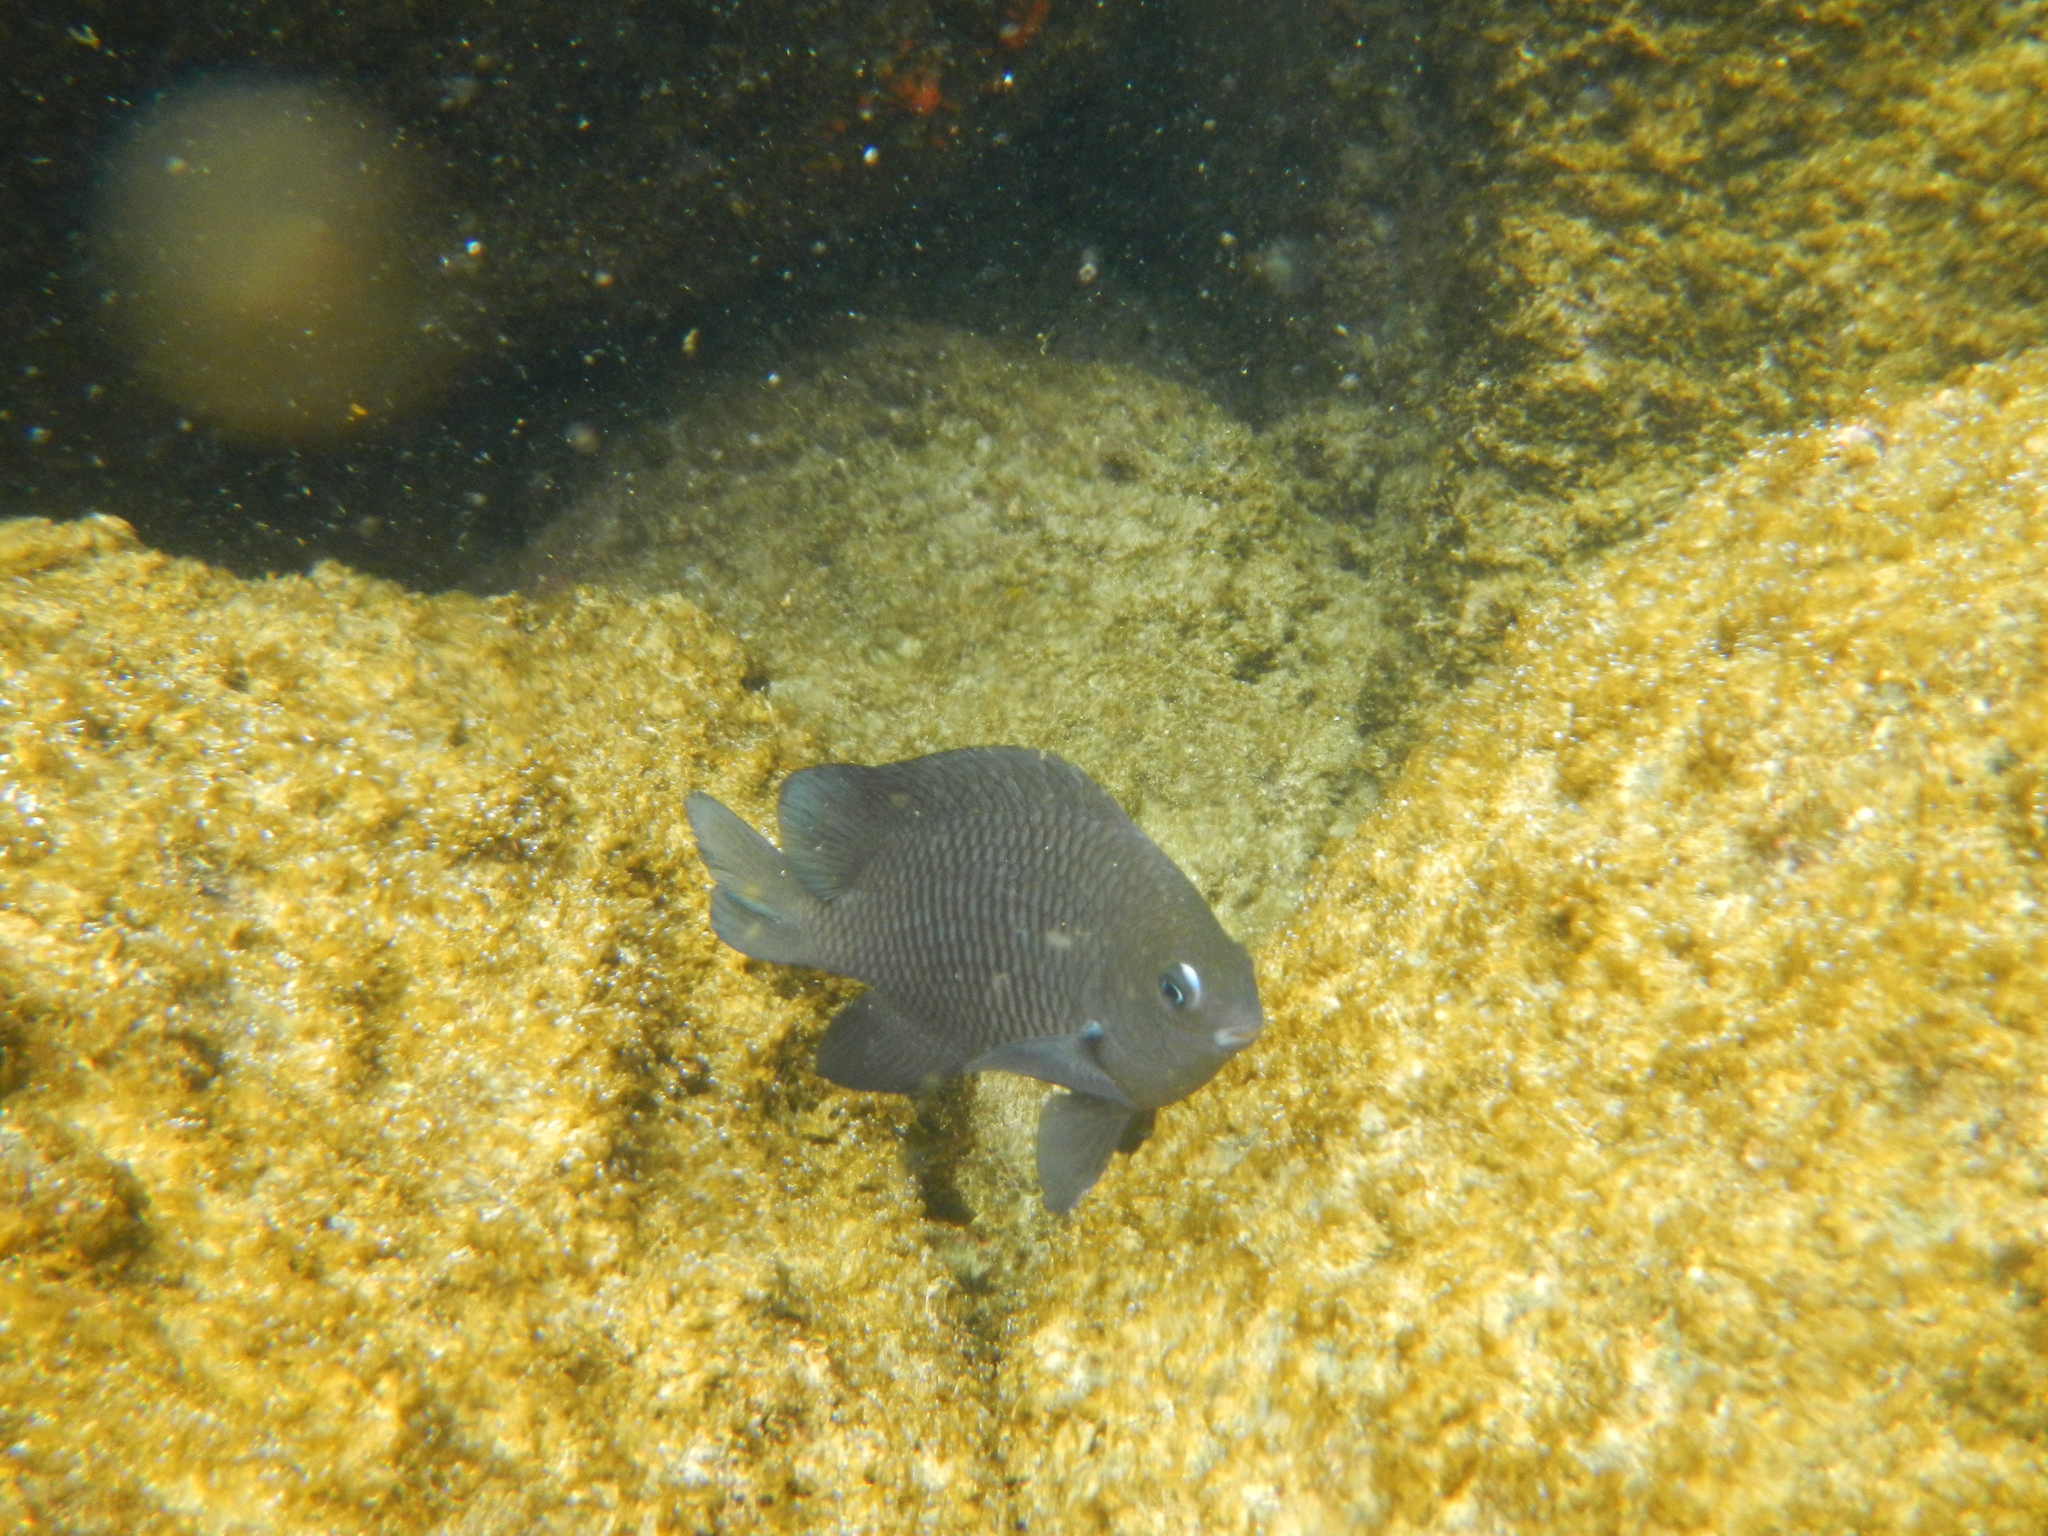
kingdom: Animalia
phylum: Chordata
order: Perciformes
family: Pomacentridae
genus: Stegastes
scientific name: Stegastes fasciolatus
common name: Pacific gregory
